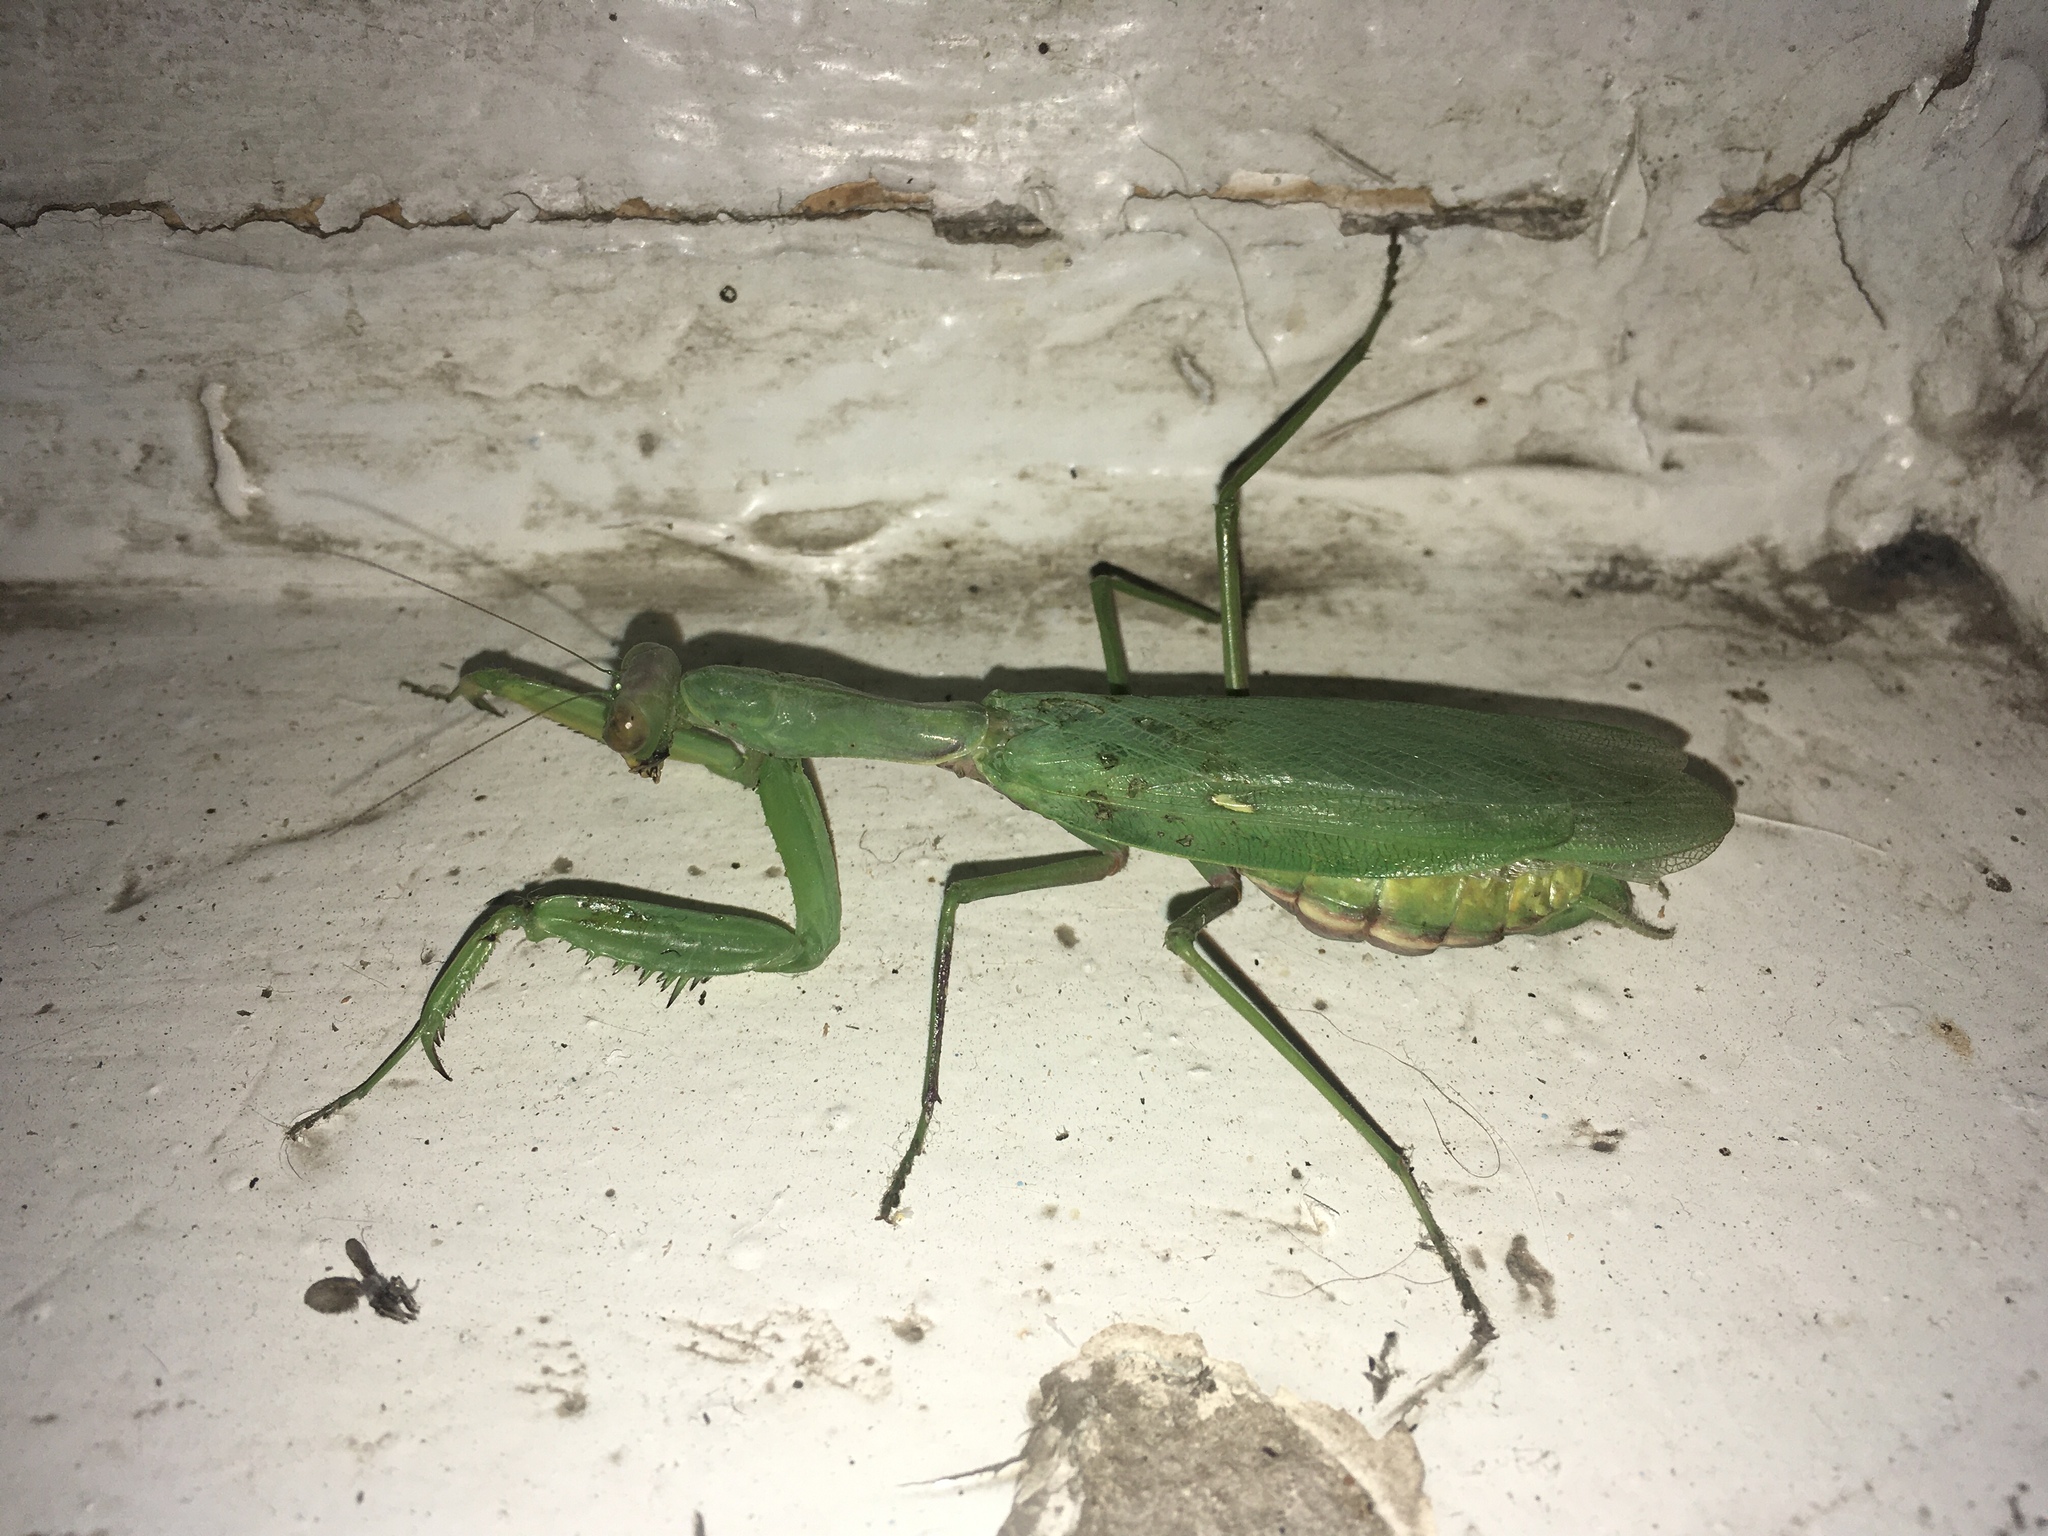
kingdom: Animalia
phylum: Arthropoda
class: Insecta
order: Mantodea
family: Mantidae
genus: Hierodula
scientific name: Hierodula transcaucasica
